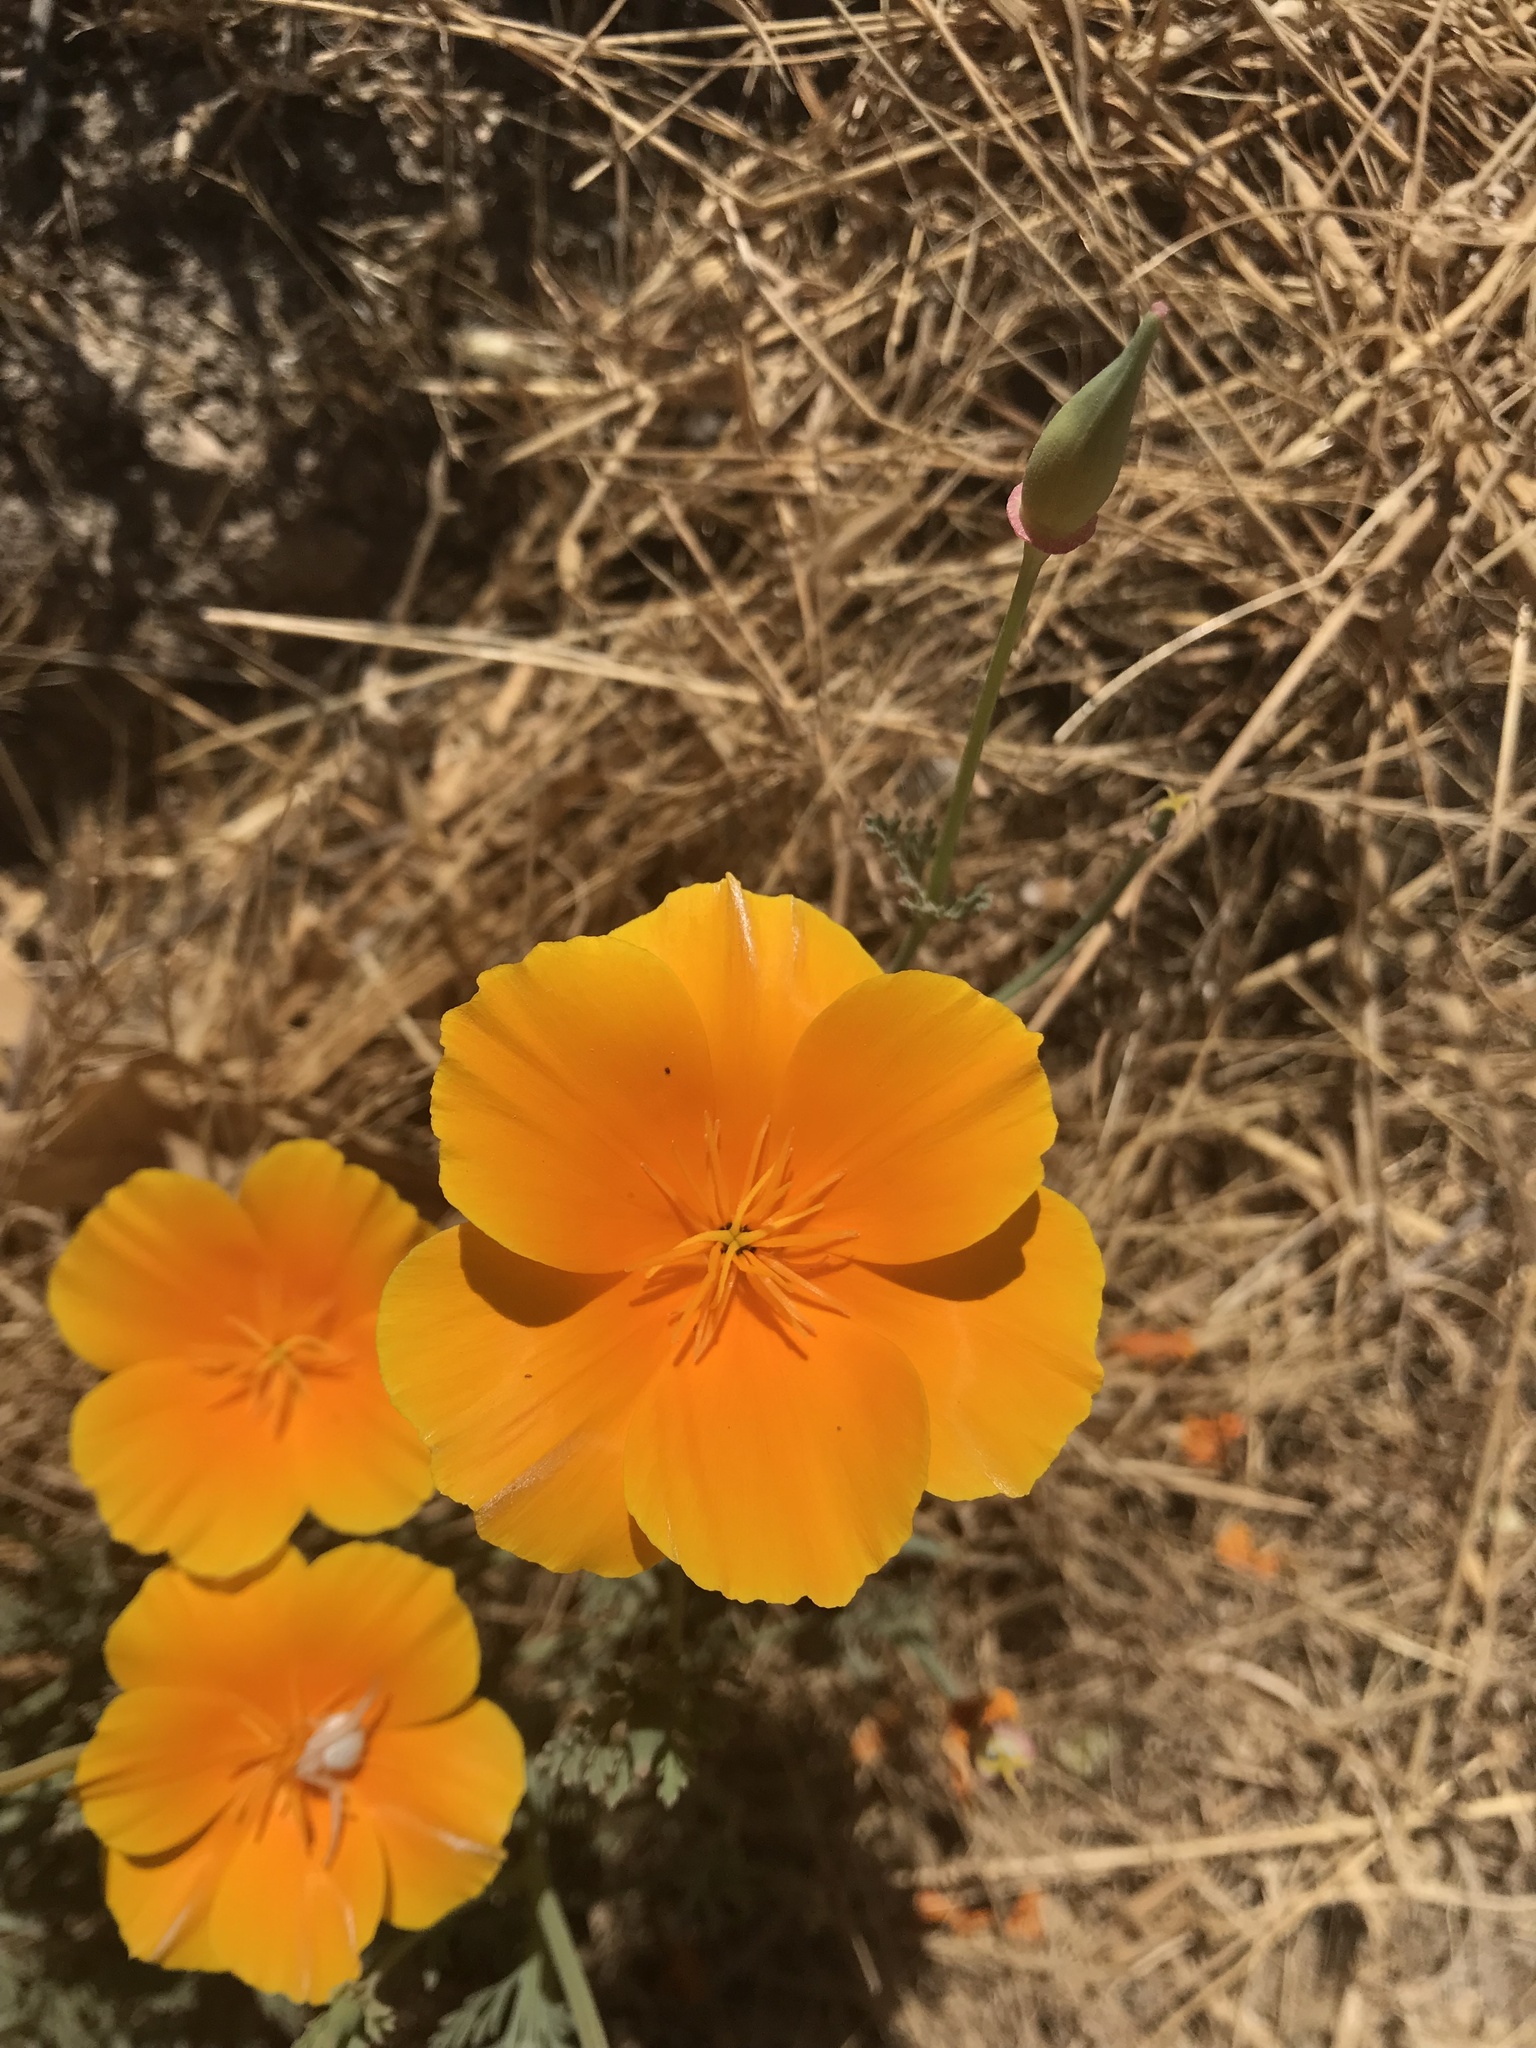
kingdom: Plantae
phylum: Tracheophyta
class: Magnoliopsida
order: Ranunculales
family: Papaveraceae
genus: Eschscholzia
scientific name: Eschscholzia californica
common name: California poppy
